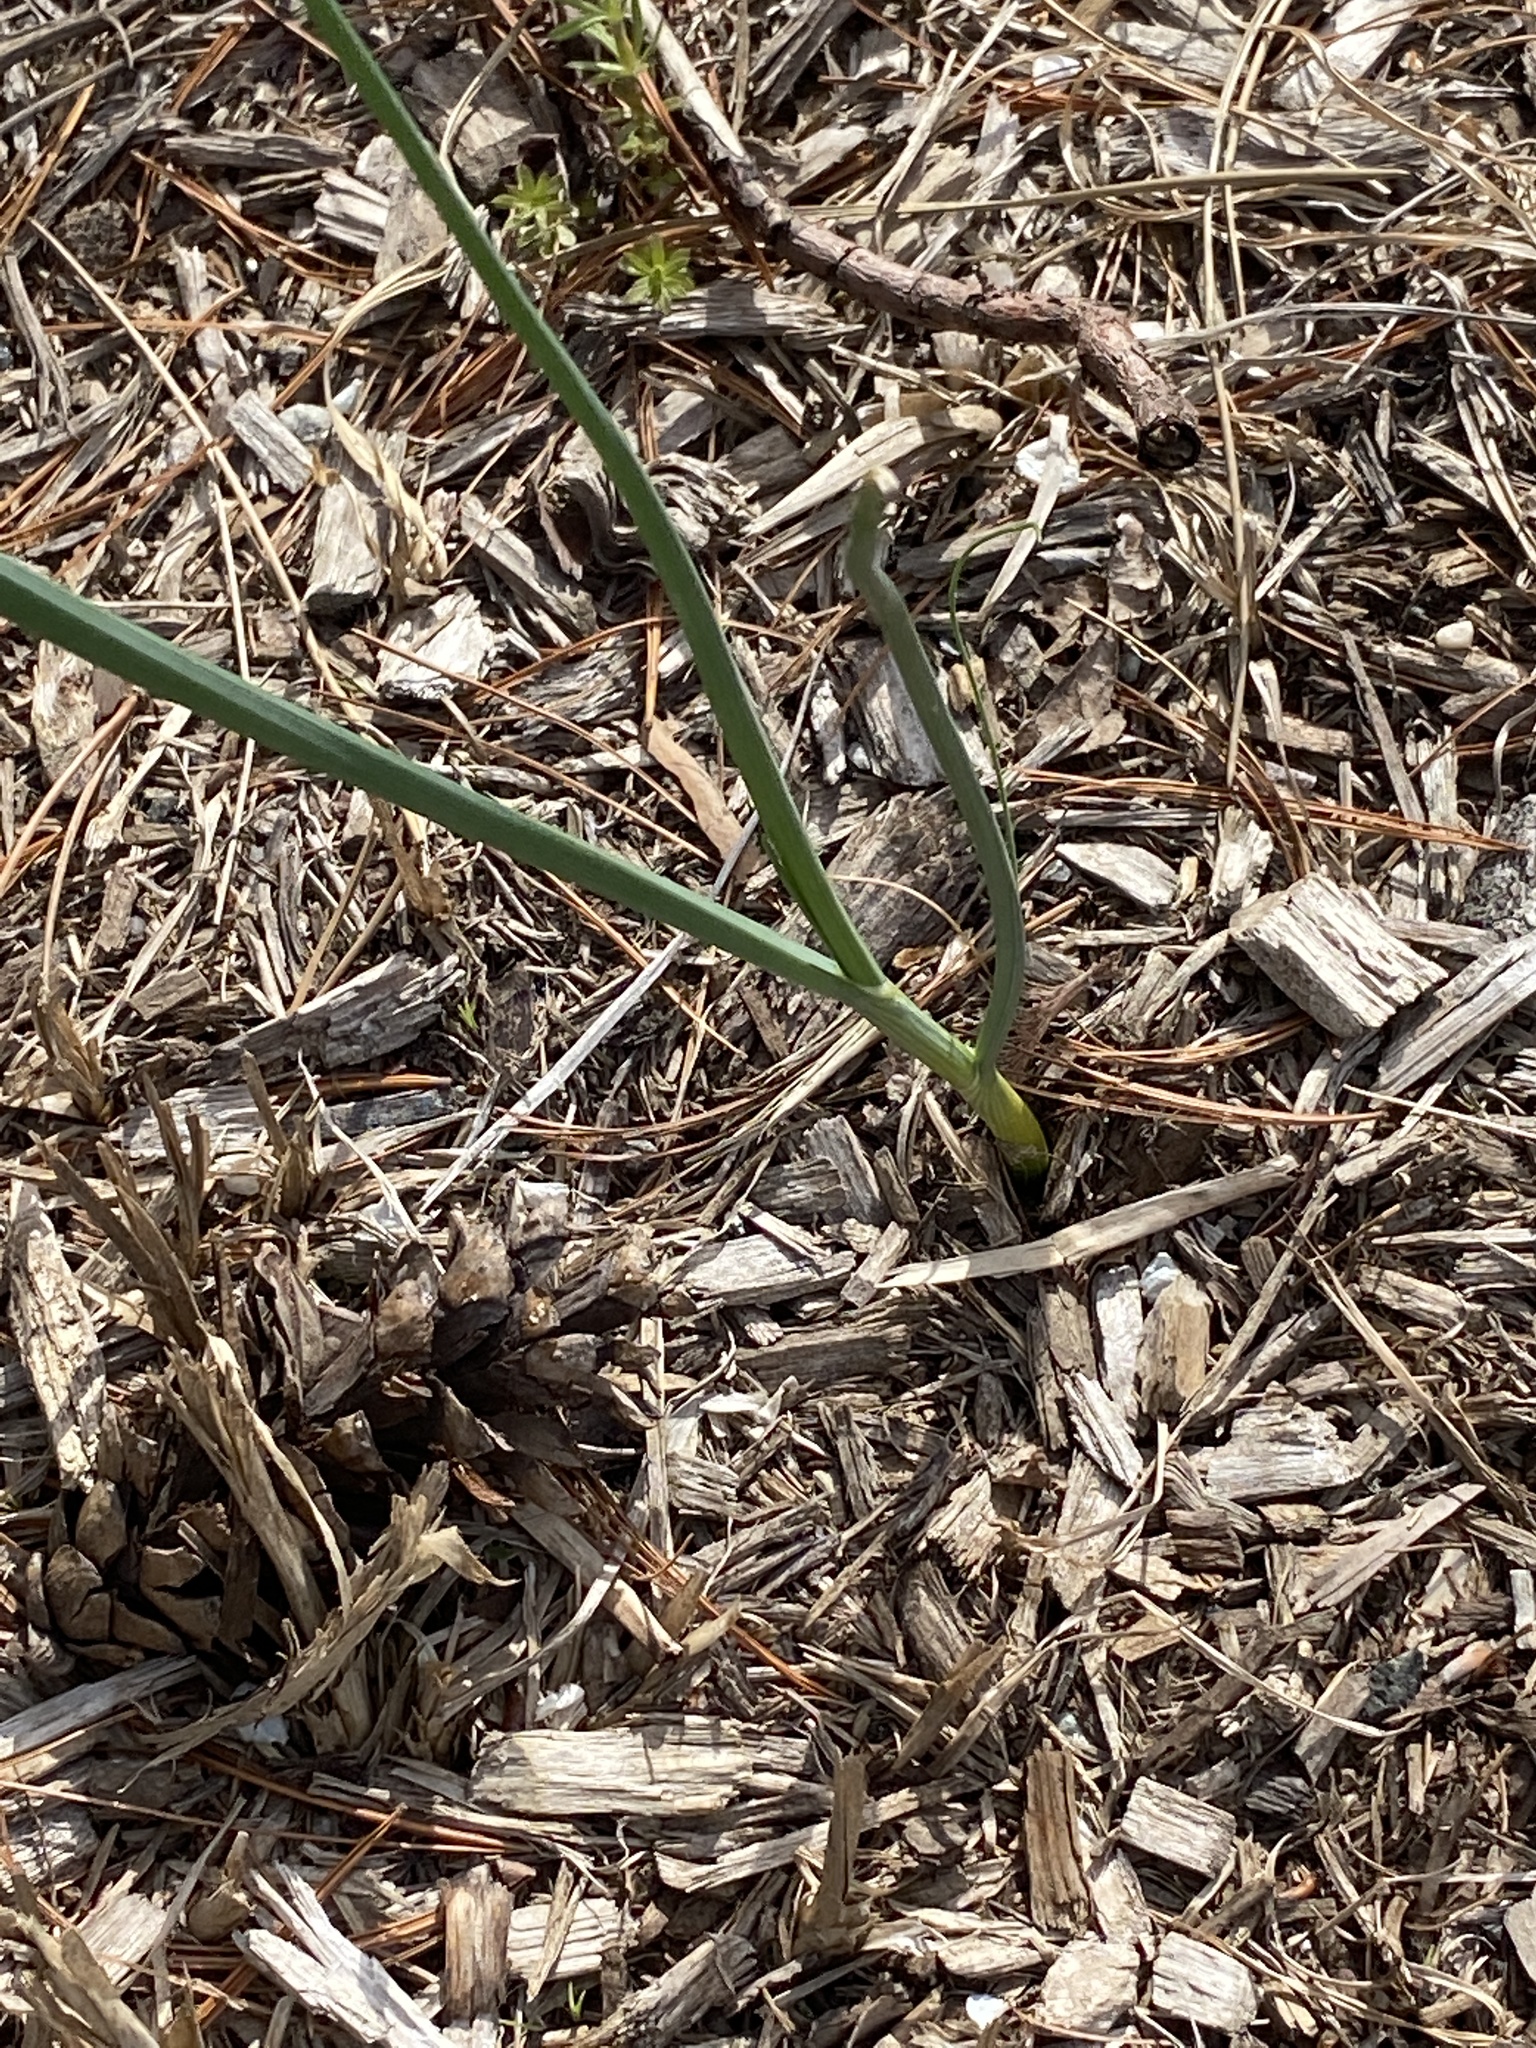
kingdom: Plantae
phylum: Tracheophyta
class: Liliopsida
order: Asparagales
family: Amaryllidaceae
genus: Allium
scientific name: Allium vineale
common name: Crow garlic
